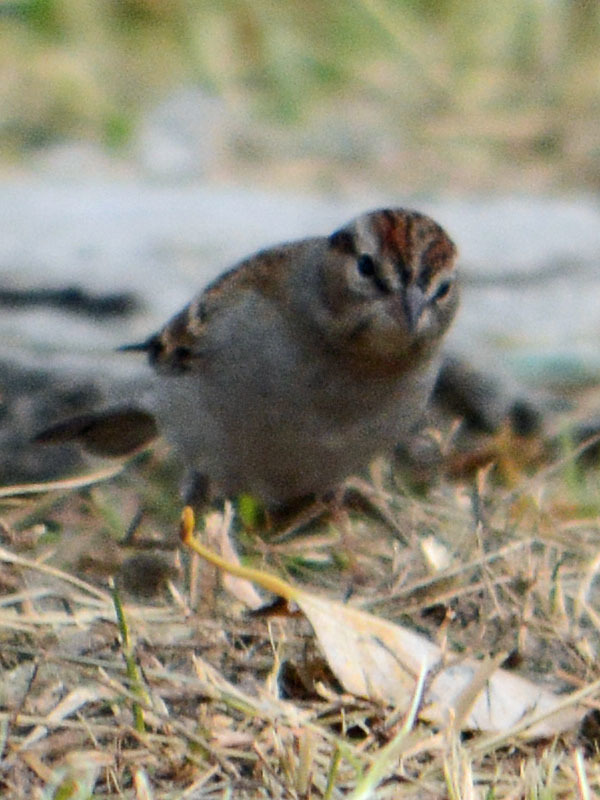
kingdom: Animalia
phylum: Chordata
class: Aves
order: Passeriformes
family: Passerellidae
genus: Spizella
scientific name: Spizella passerina
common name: Chipping sparrow
